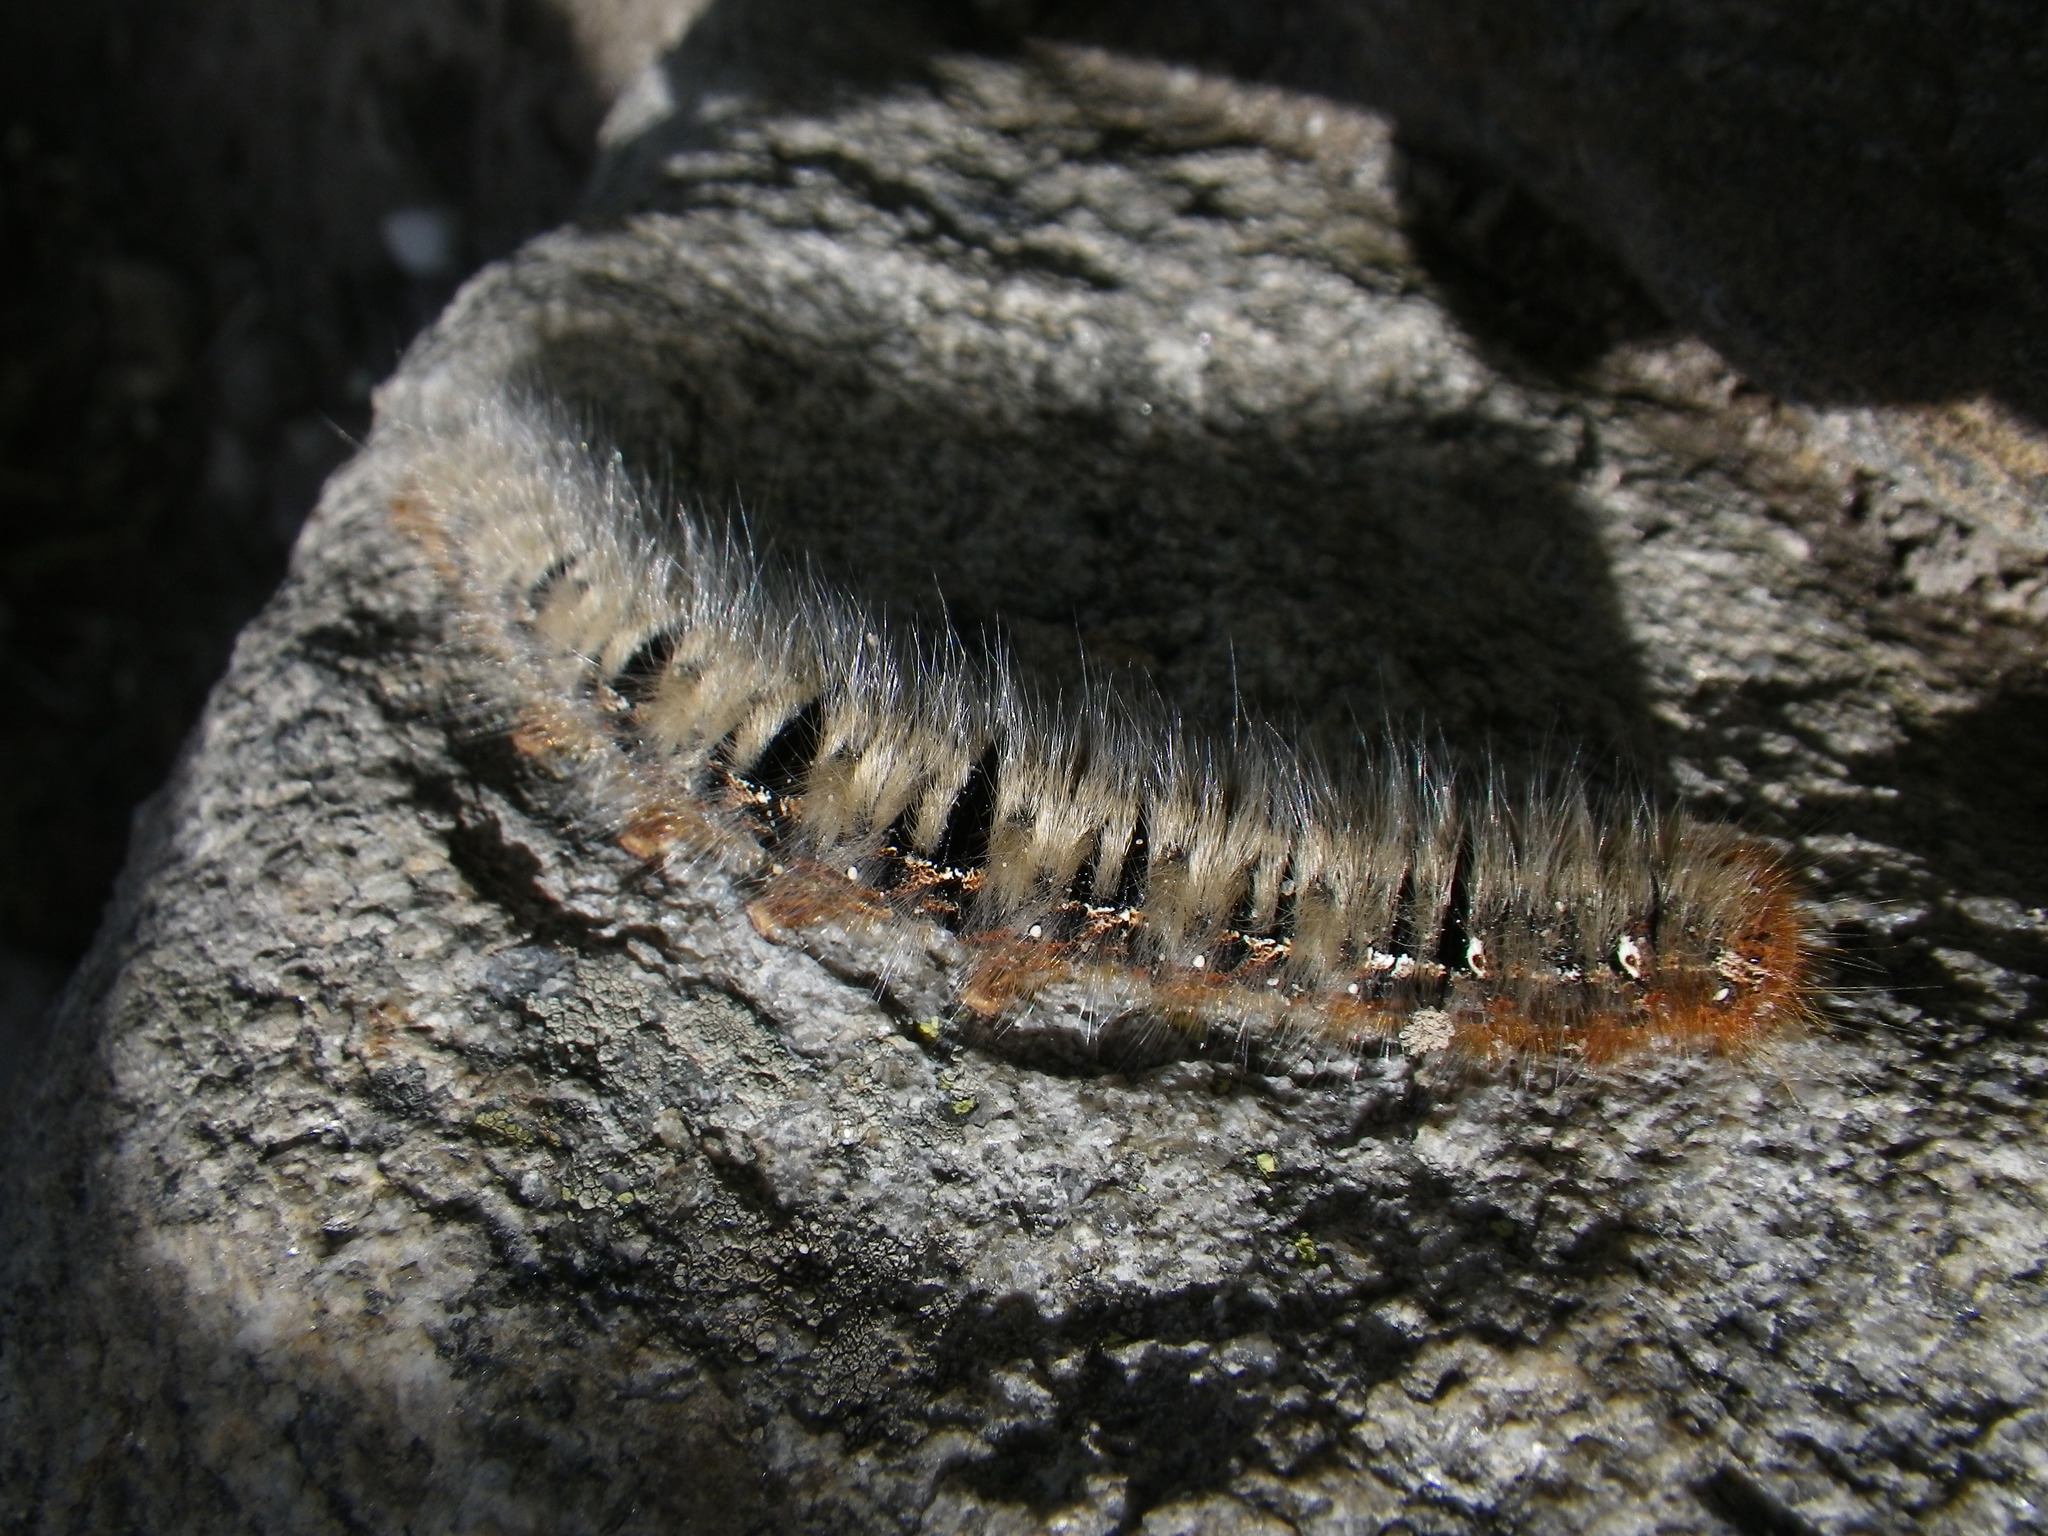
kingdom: Animalia
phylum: Arthropoda
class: Insecta
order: Lepidoptera
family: Lasiocampidae
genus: Lasiocampa
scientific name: Lasiocampa quercus
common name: Oak eggar
